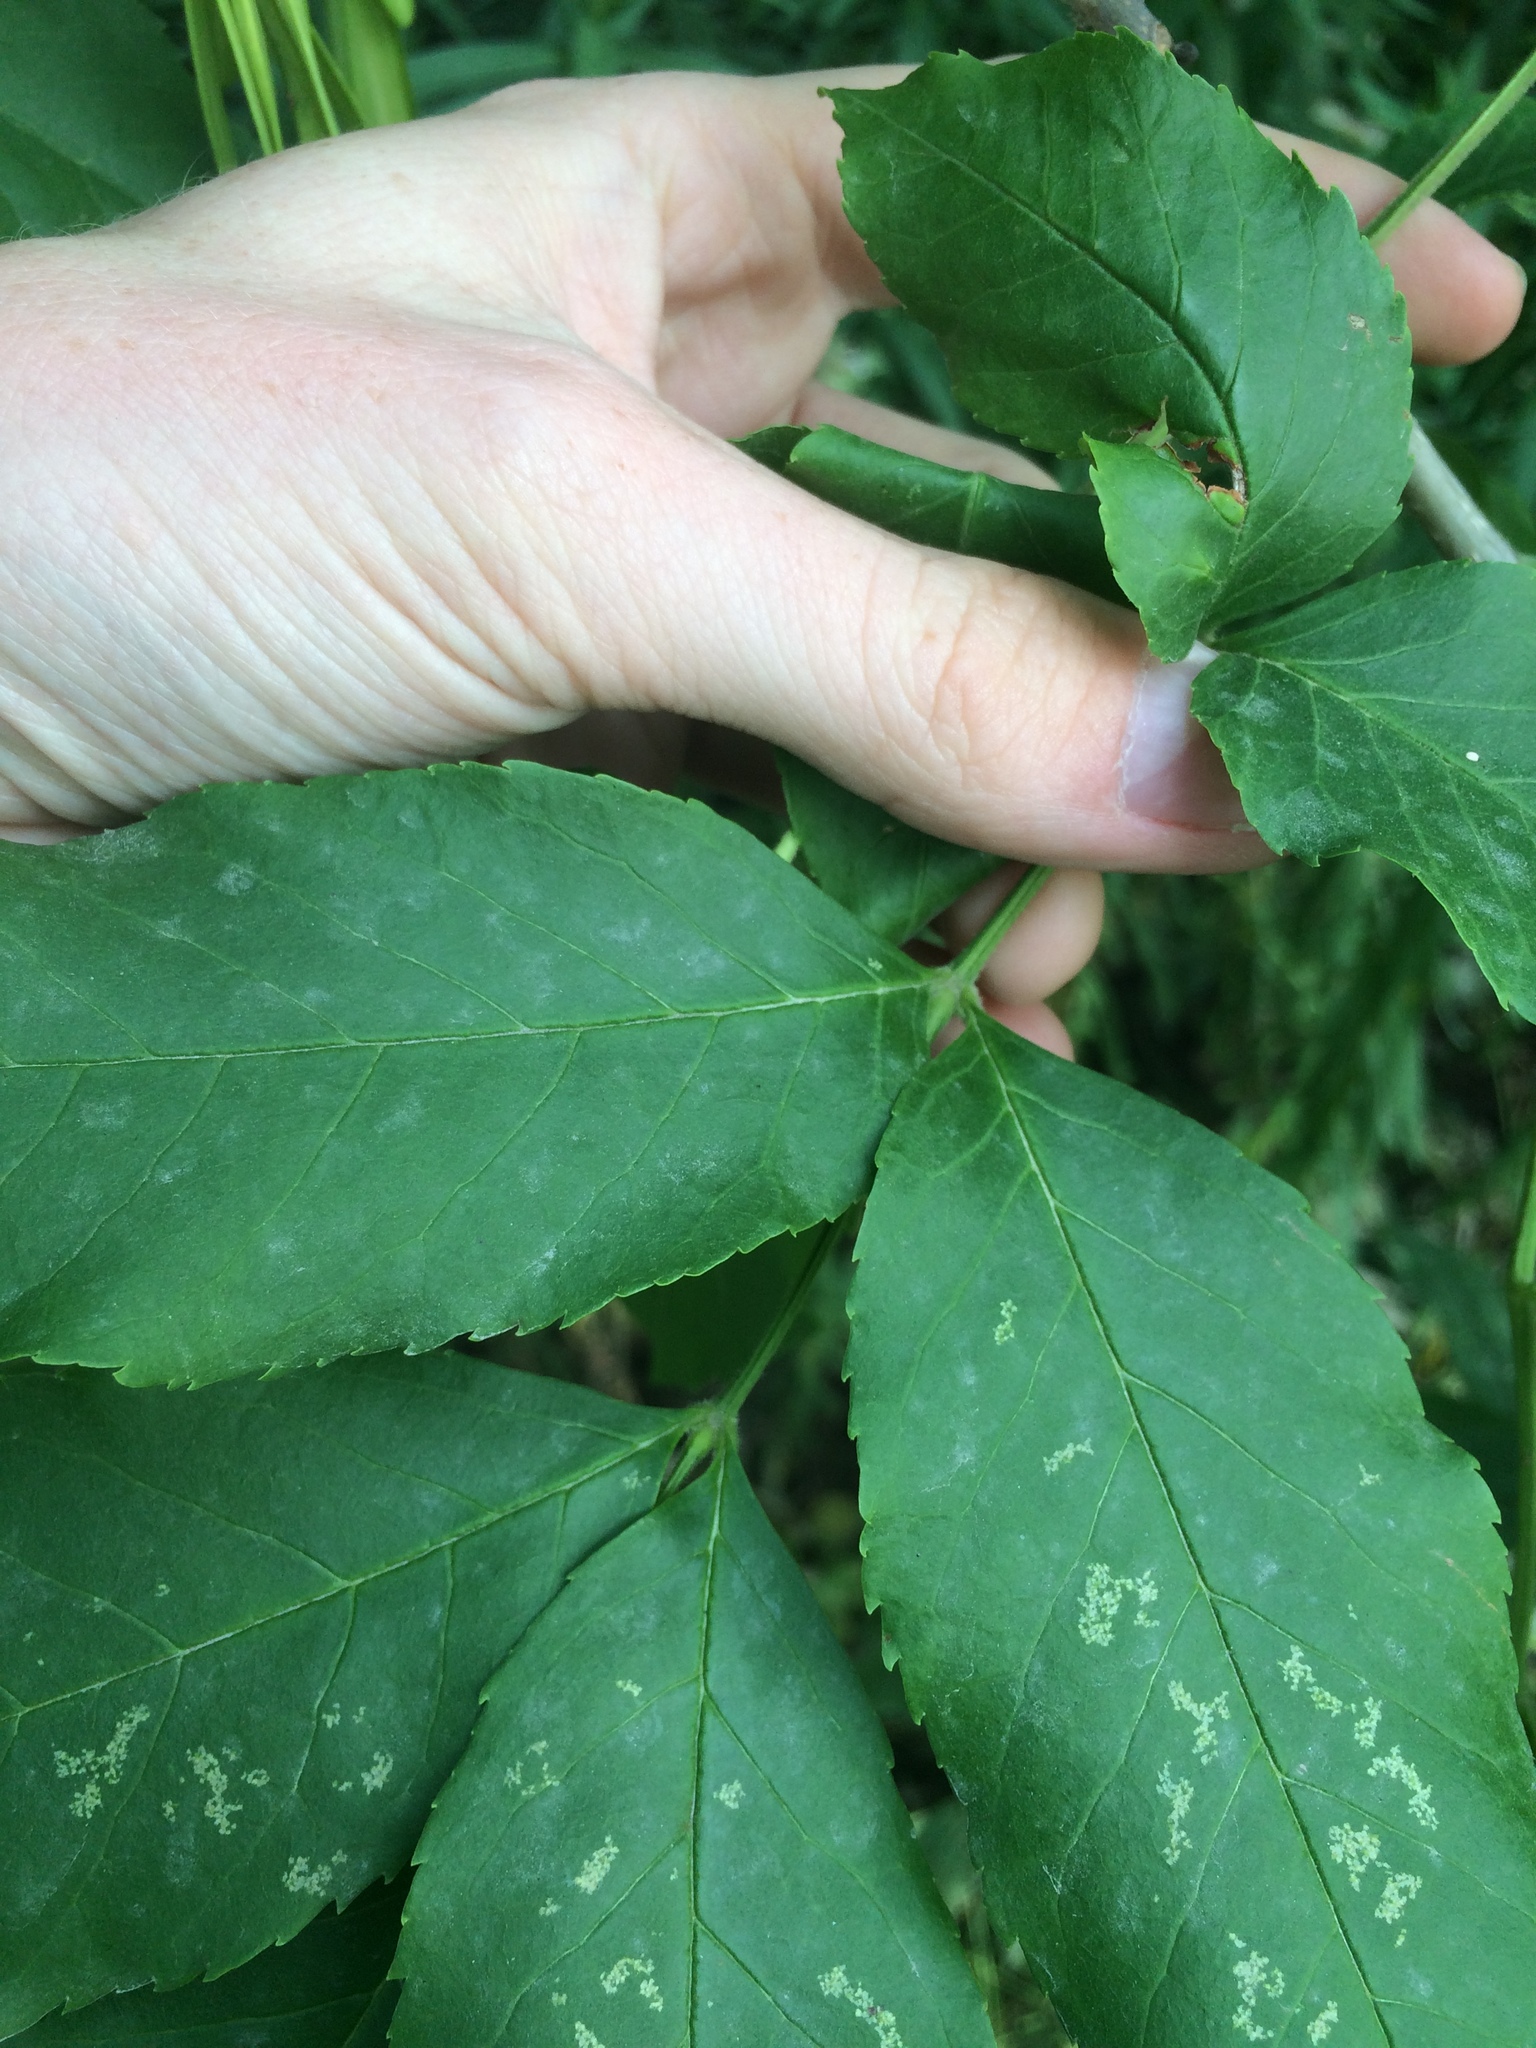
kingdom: Plantae
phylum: Tracheophyta
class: Magnoliopsida
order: Lamiales
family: Oleaceae
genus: Fraxinus
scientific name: Fraxinus pennsylvanica
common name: Green ash
